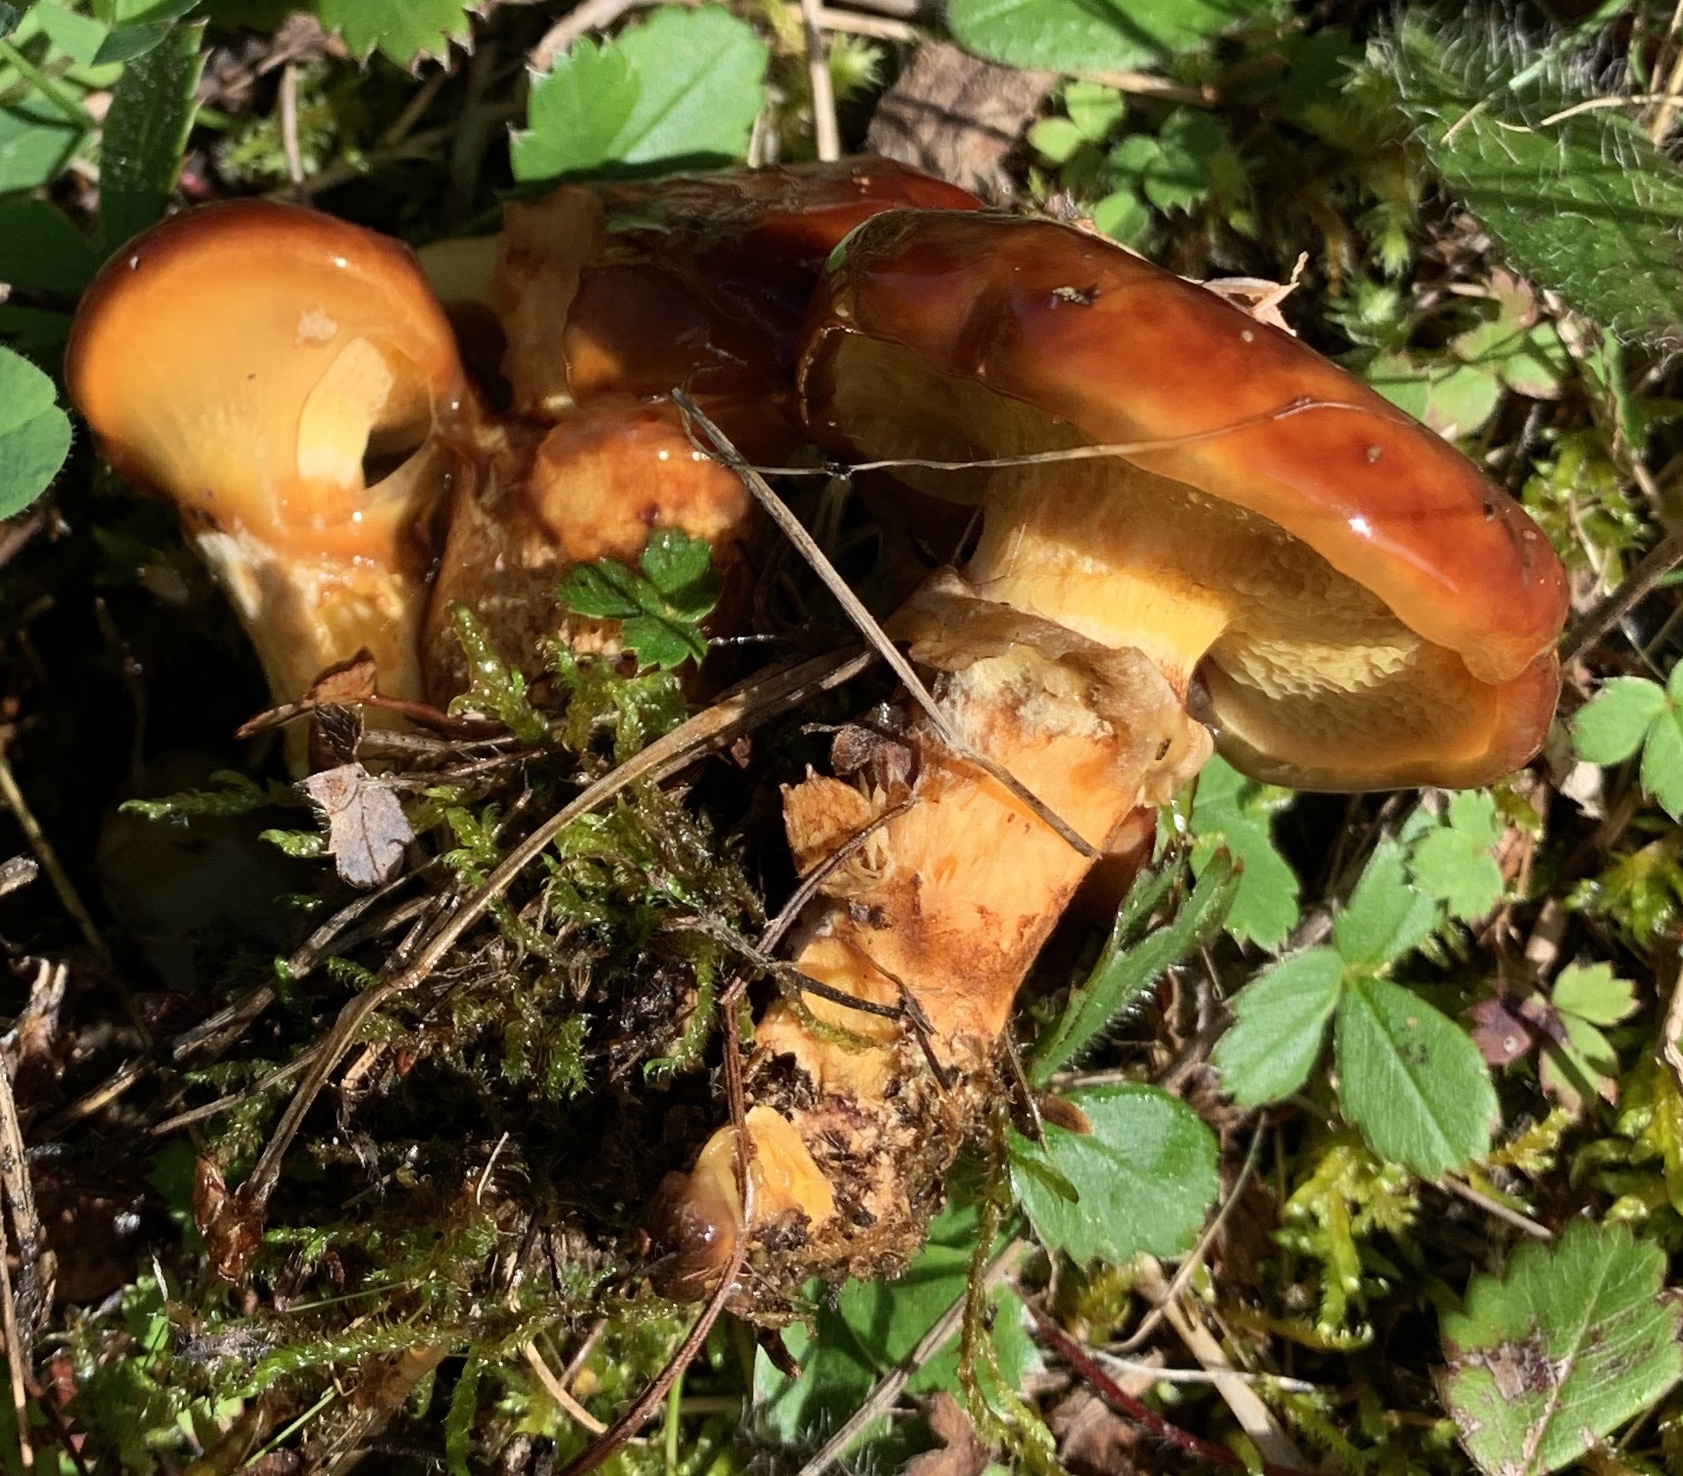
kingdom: Fungi
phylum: Basidiomycota
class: Agaricomycetes
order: Boletales
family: Suillaceae
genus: Boletinus
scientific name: Boletinus glandulosus
